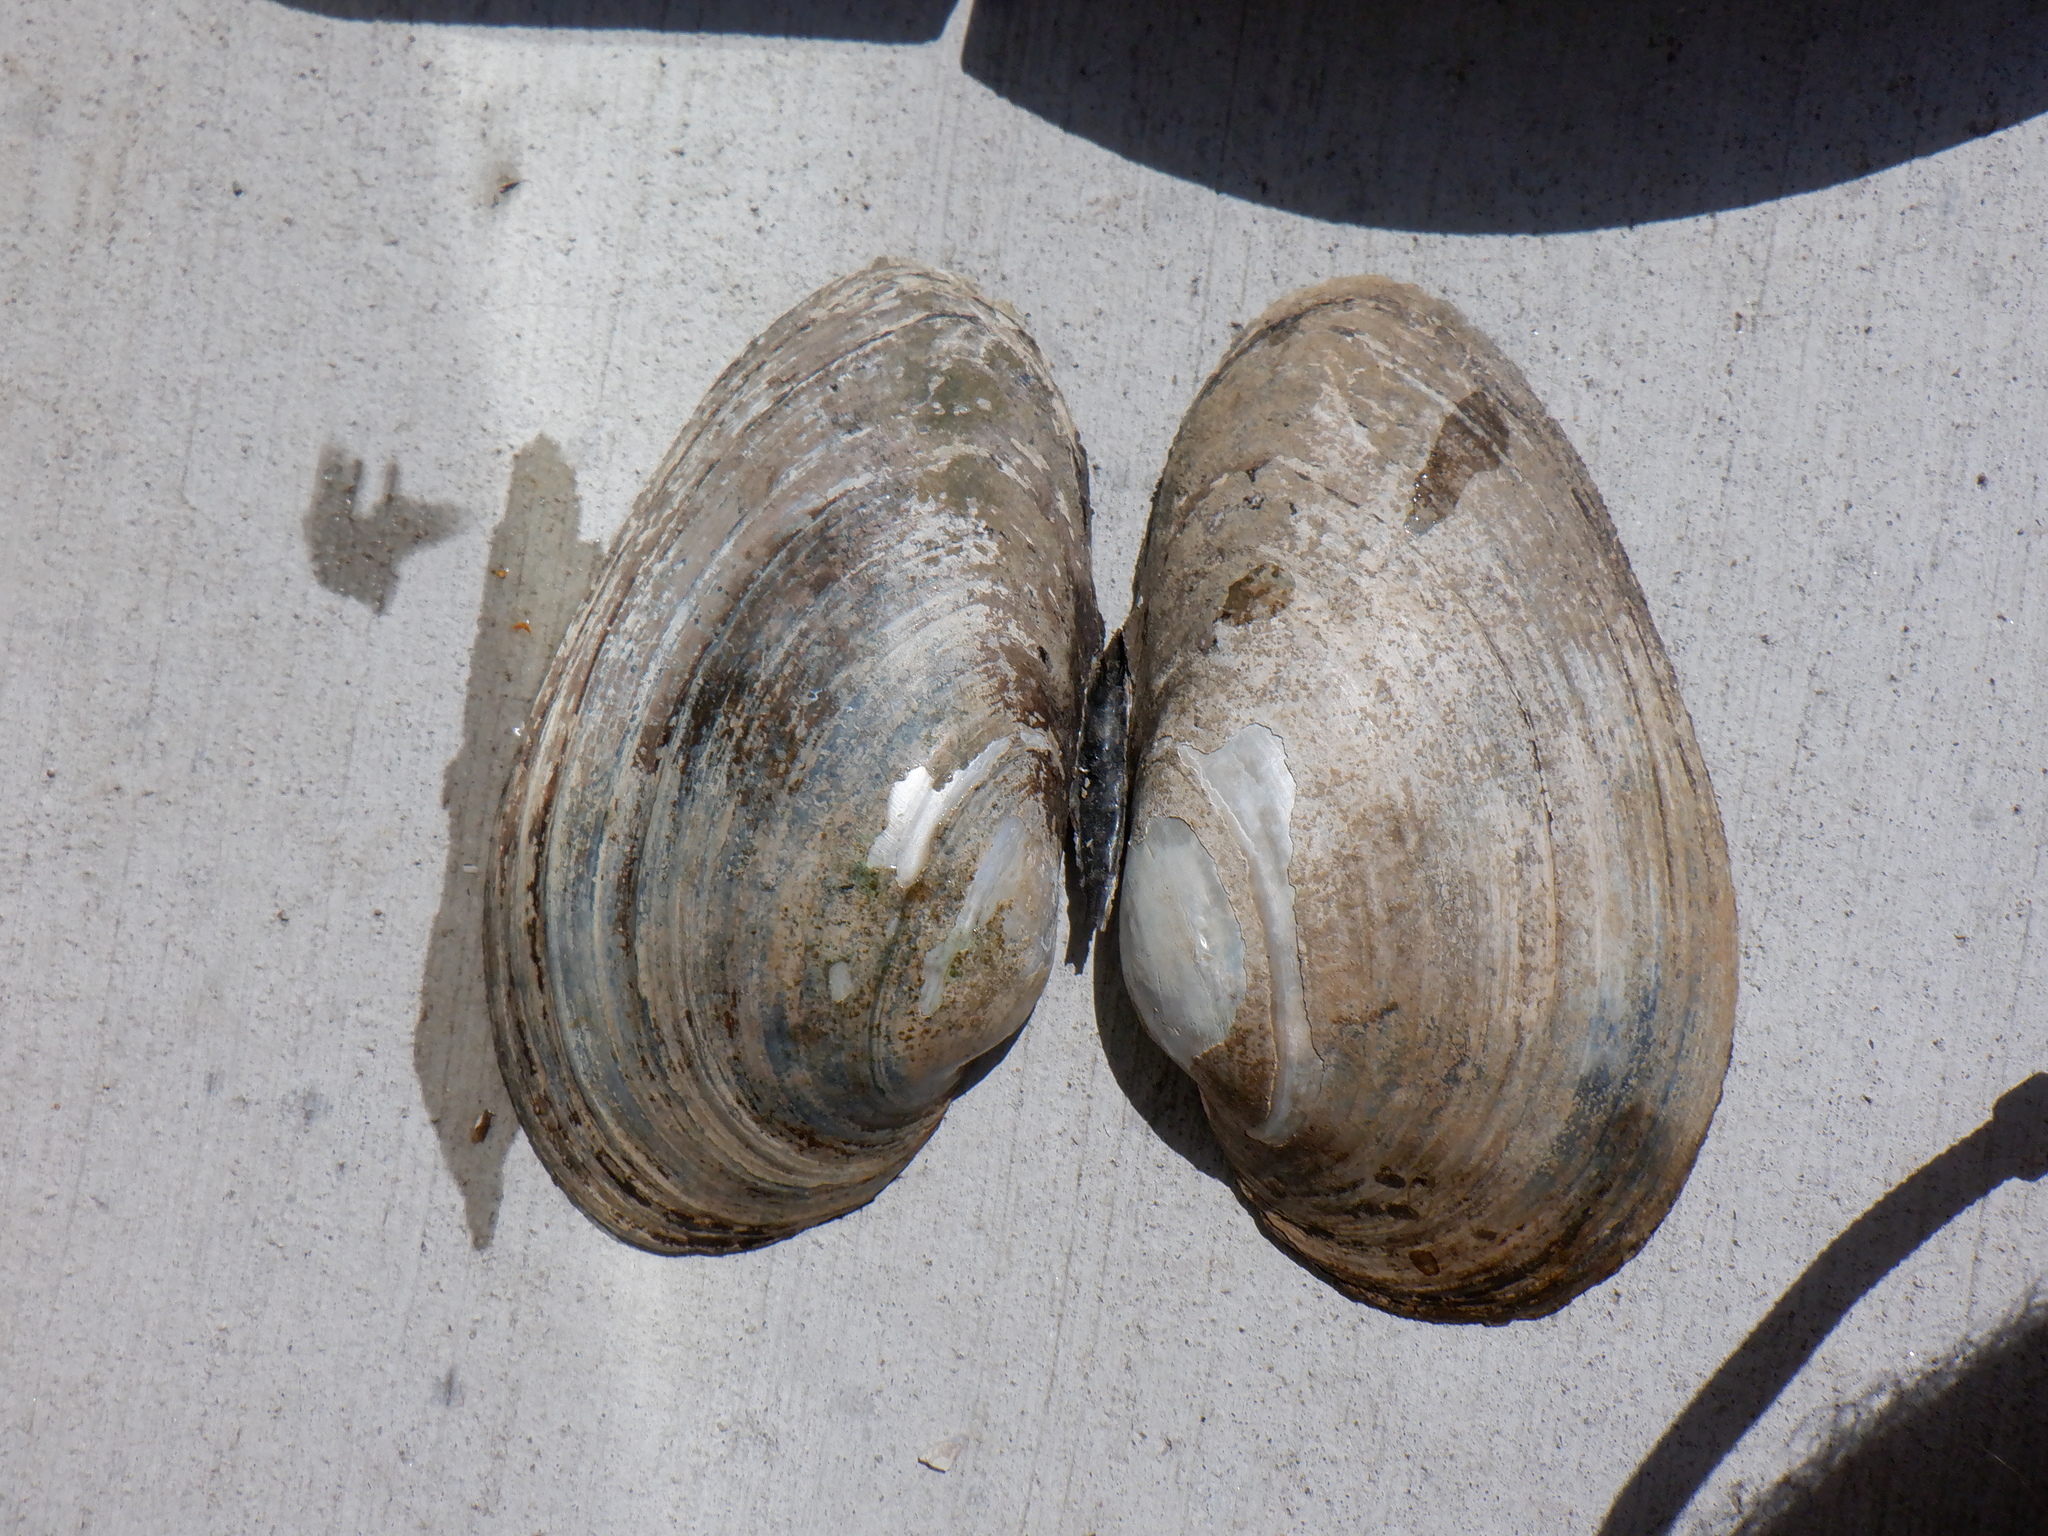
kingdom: Animalia
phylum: Mollusca
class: Bivalvia
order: Unionida
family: Unionidae
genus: Pyganodon
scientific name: Pyganodon grandis
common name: Giant floater
